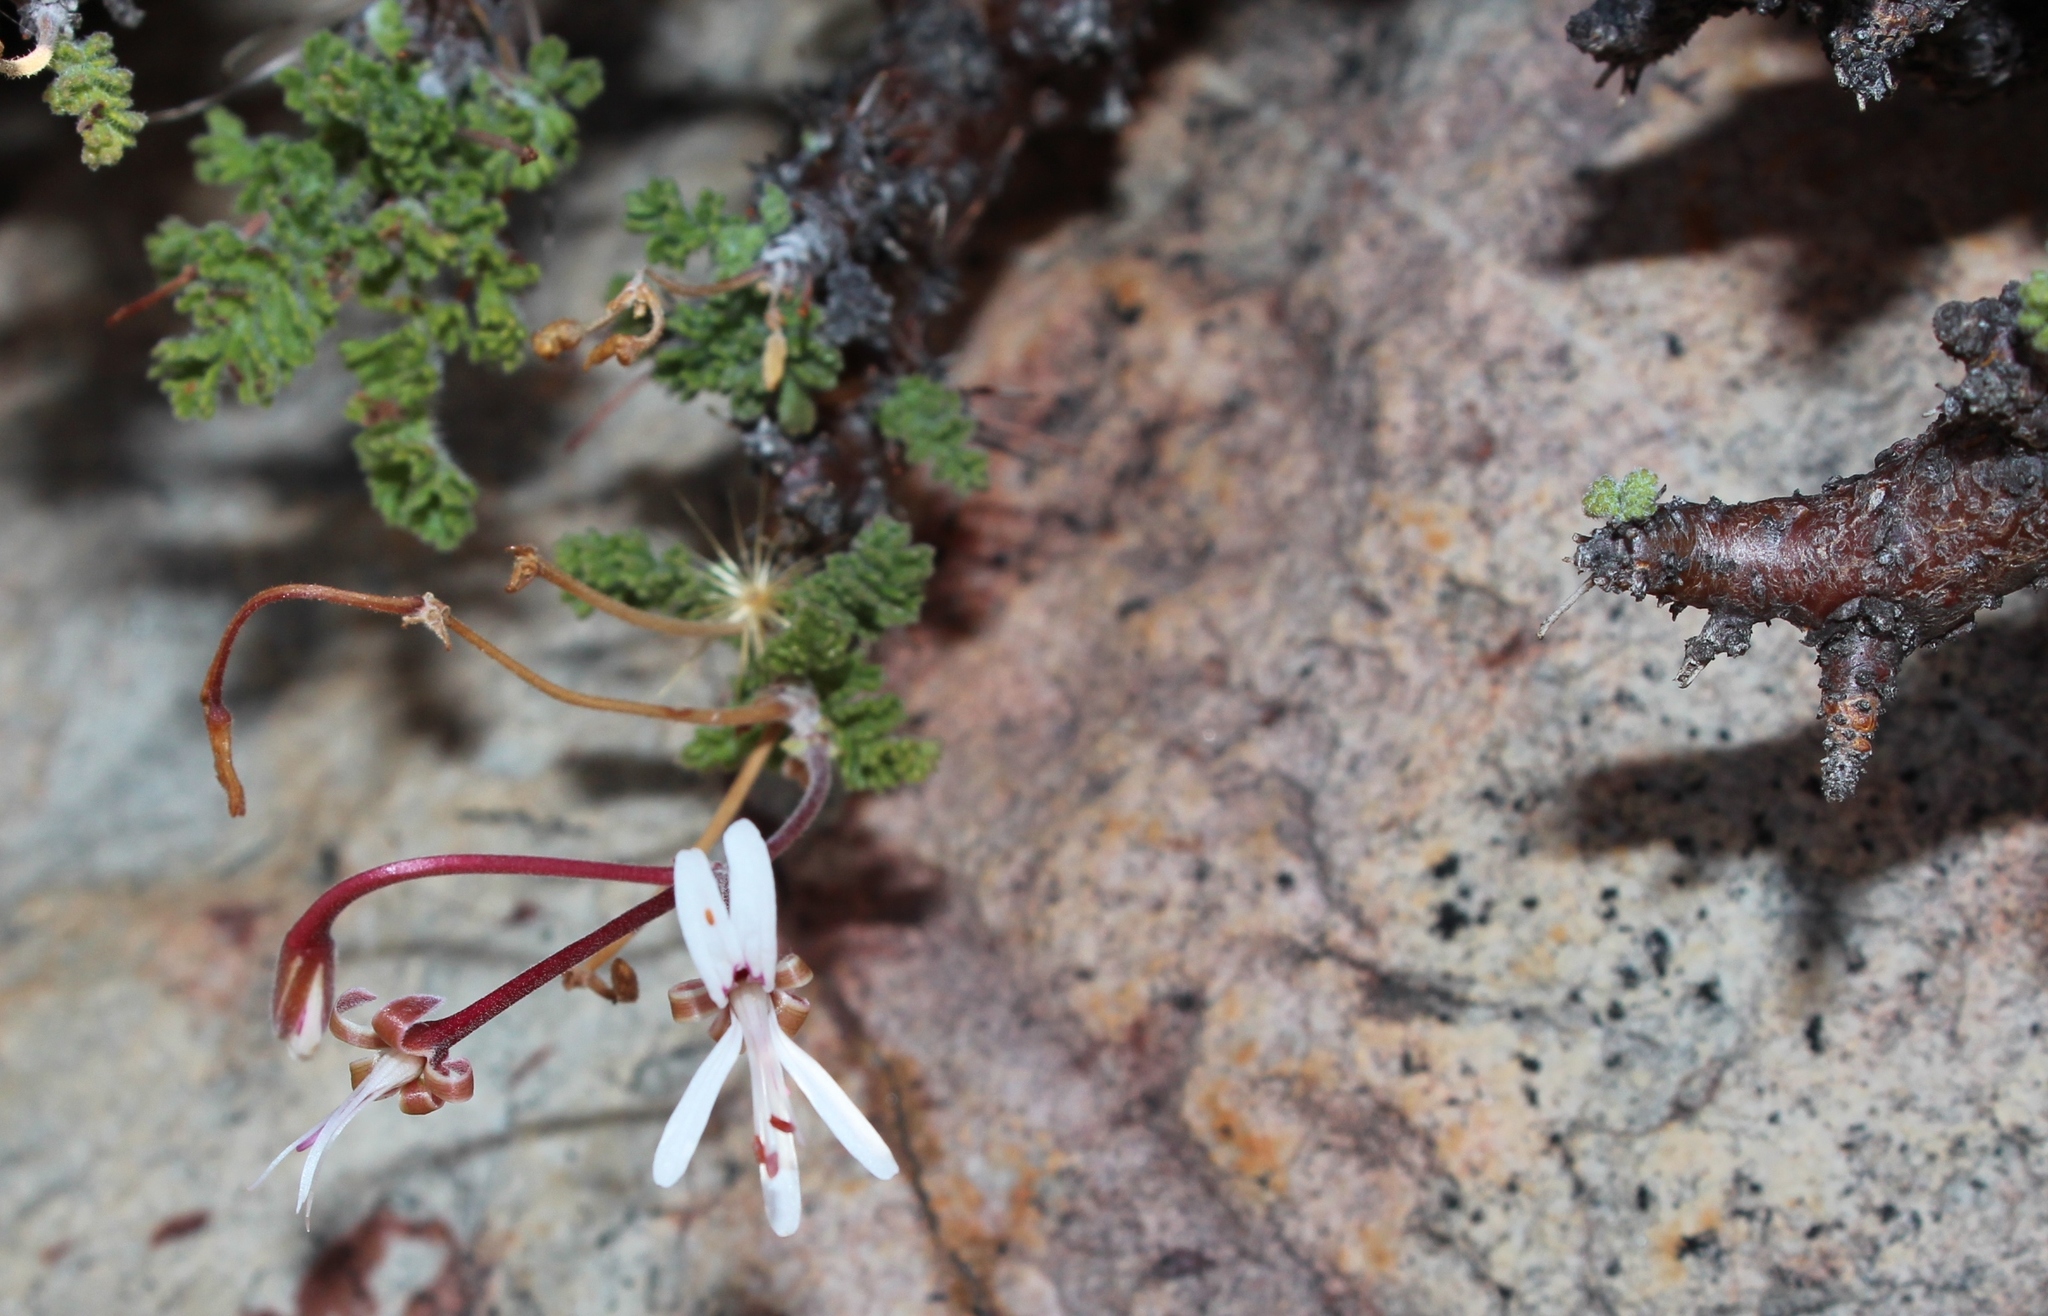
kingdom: Plantae
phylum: Tracheophyta
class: Magnoliopsida
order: Geraniales
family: Geraniaceae
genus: Pelargonium
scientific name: Pelargonium alternans
